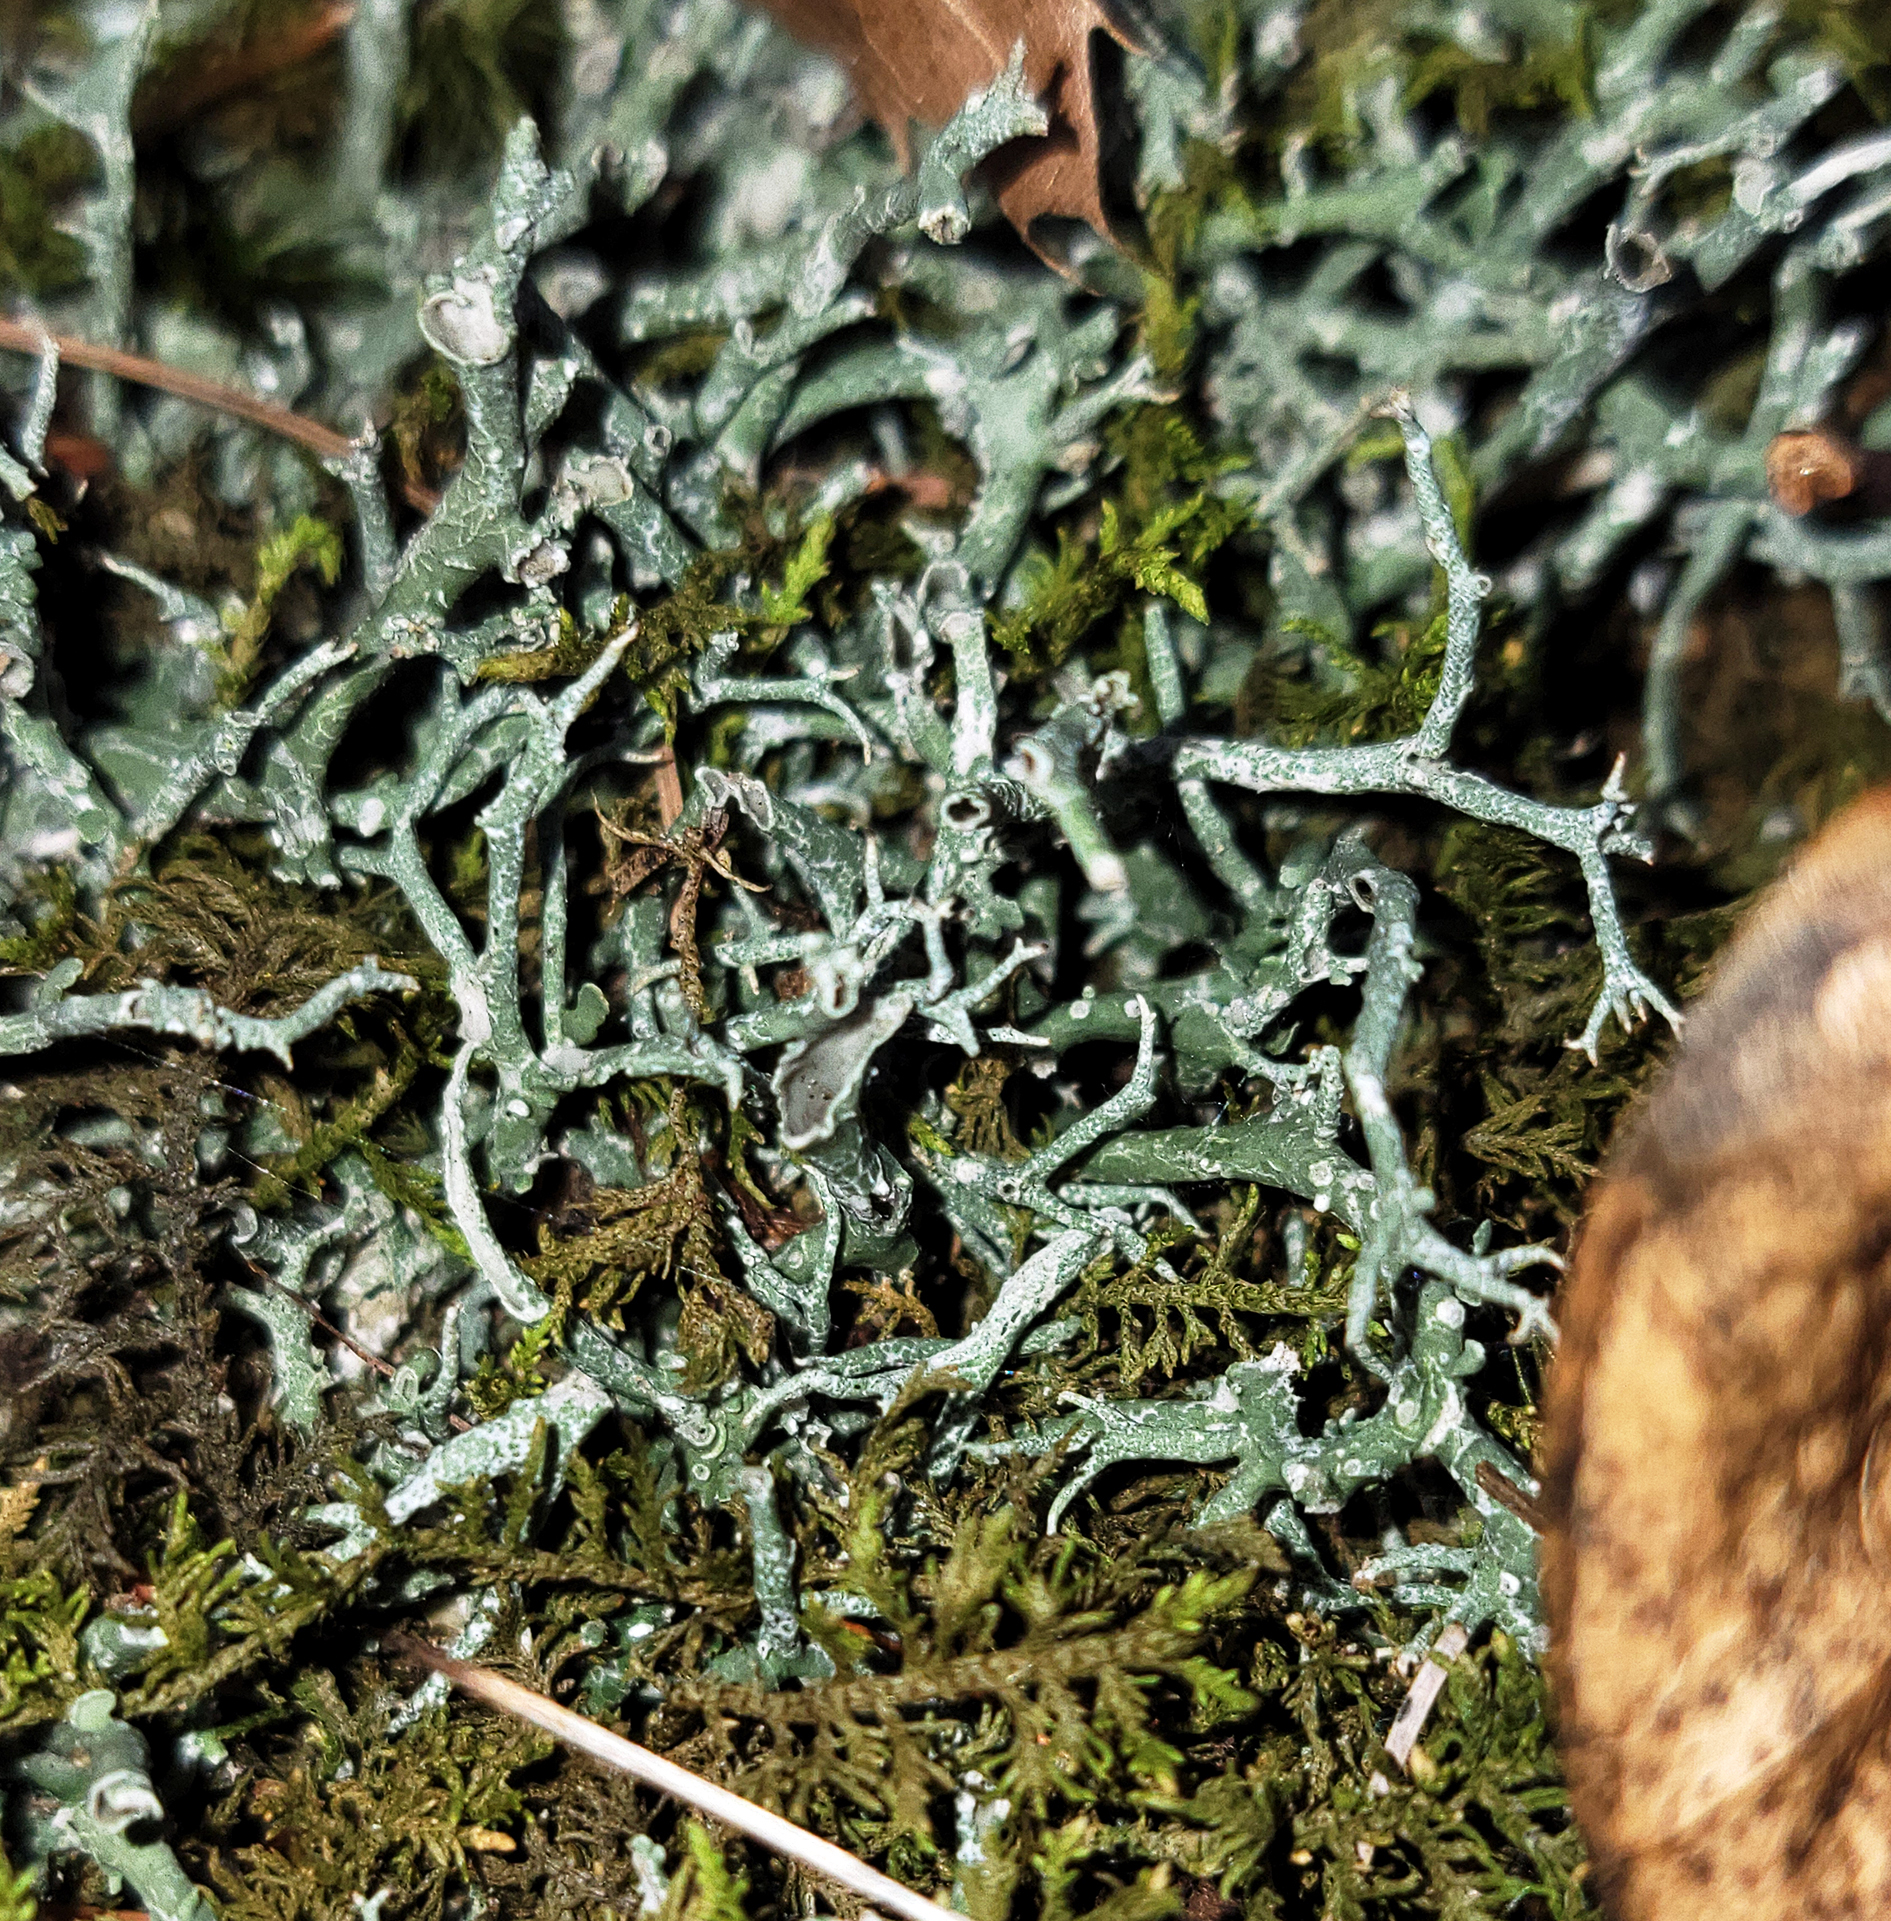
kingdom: Fungi
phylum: Ascomycota
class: Lecanoromycetes
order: Lecanorales
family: Cladoniaceae
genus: Cladonia
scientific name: Cladonia furcata
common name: Many-forked cladonia
